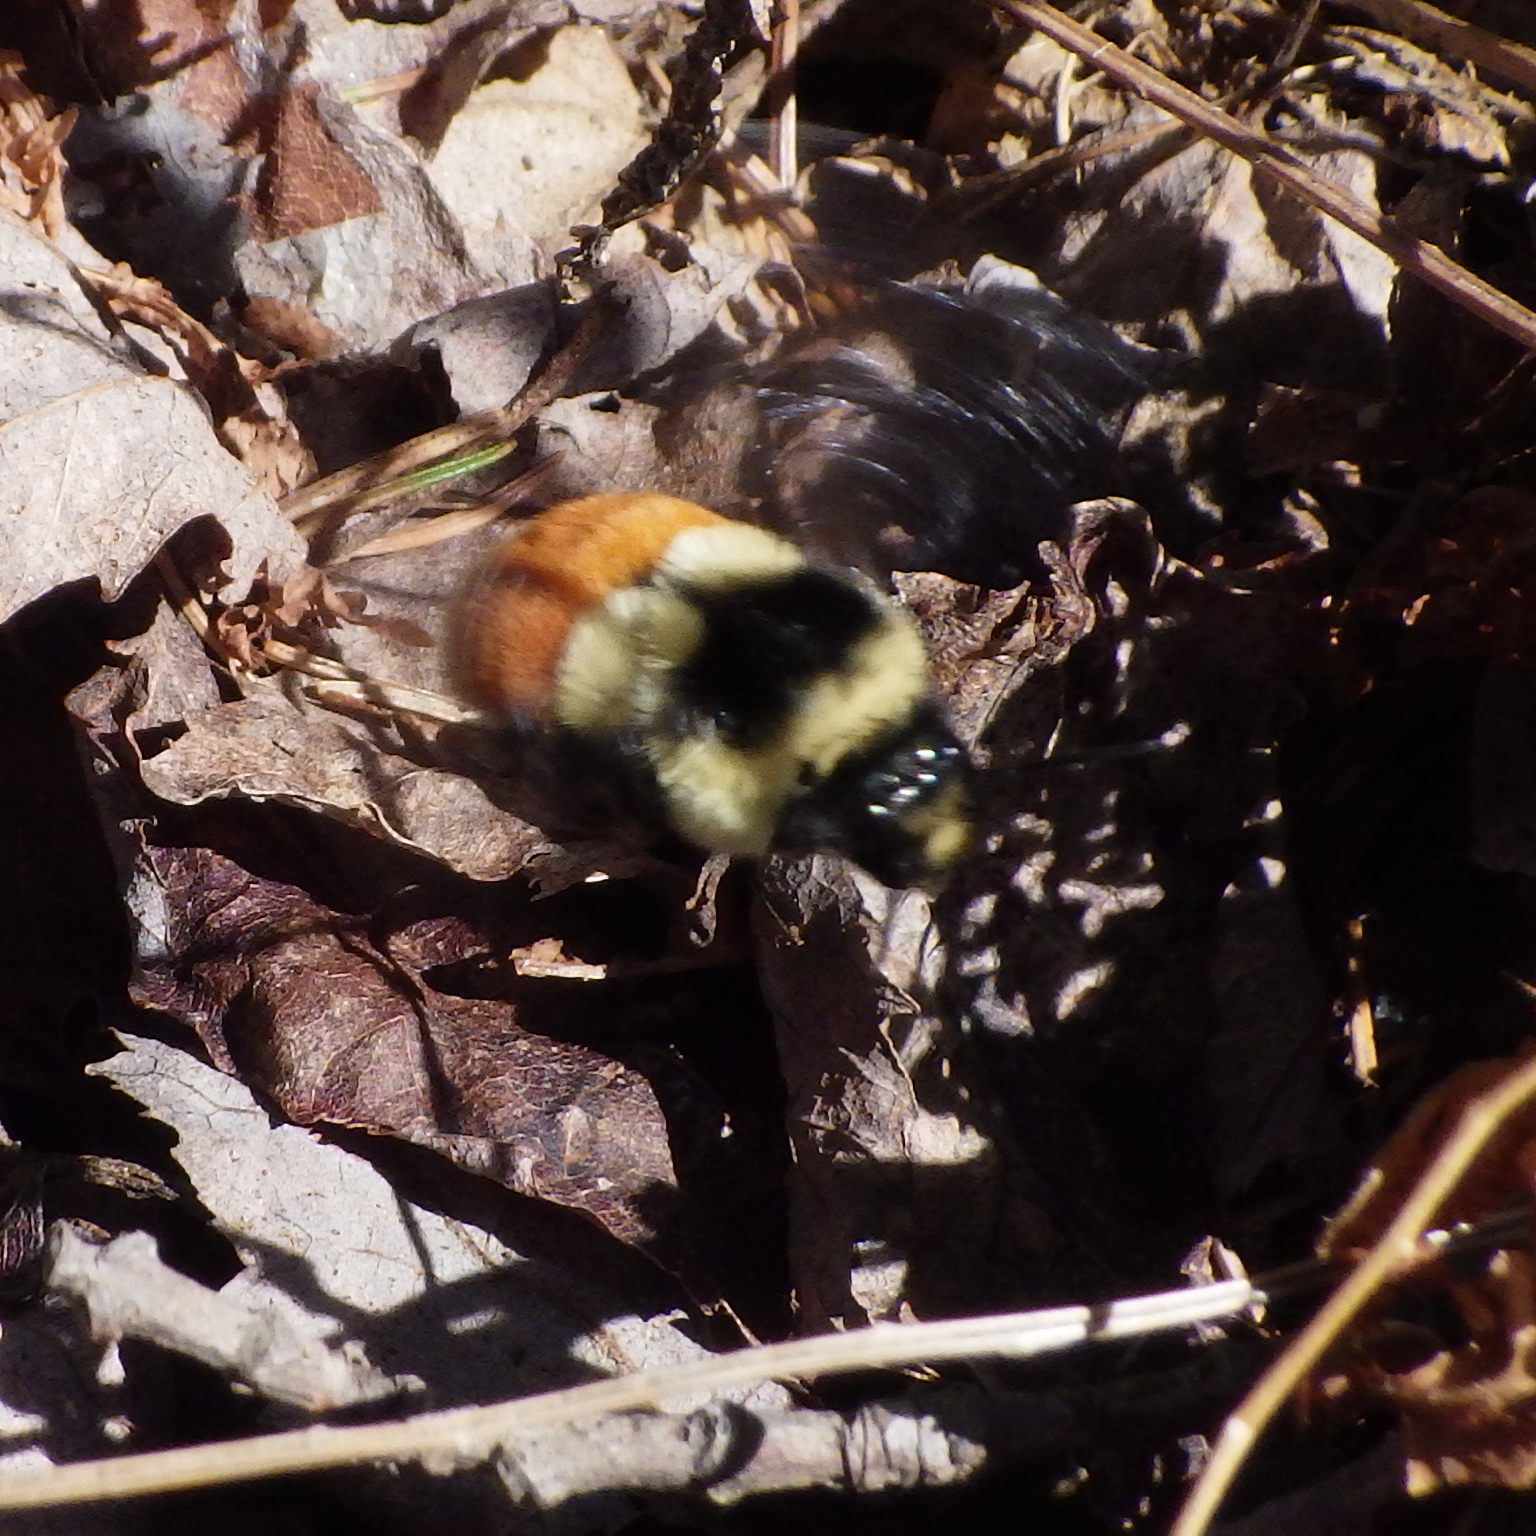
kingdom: Animalia
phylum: Arthropoda
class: Insecta
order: Hymenoptera
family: Apidae
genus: Bombus
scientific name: Bombus ternarius
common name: Tri-colored bumble bee
